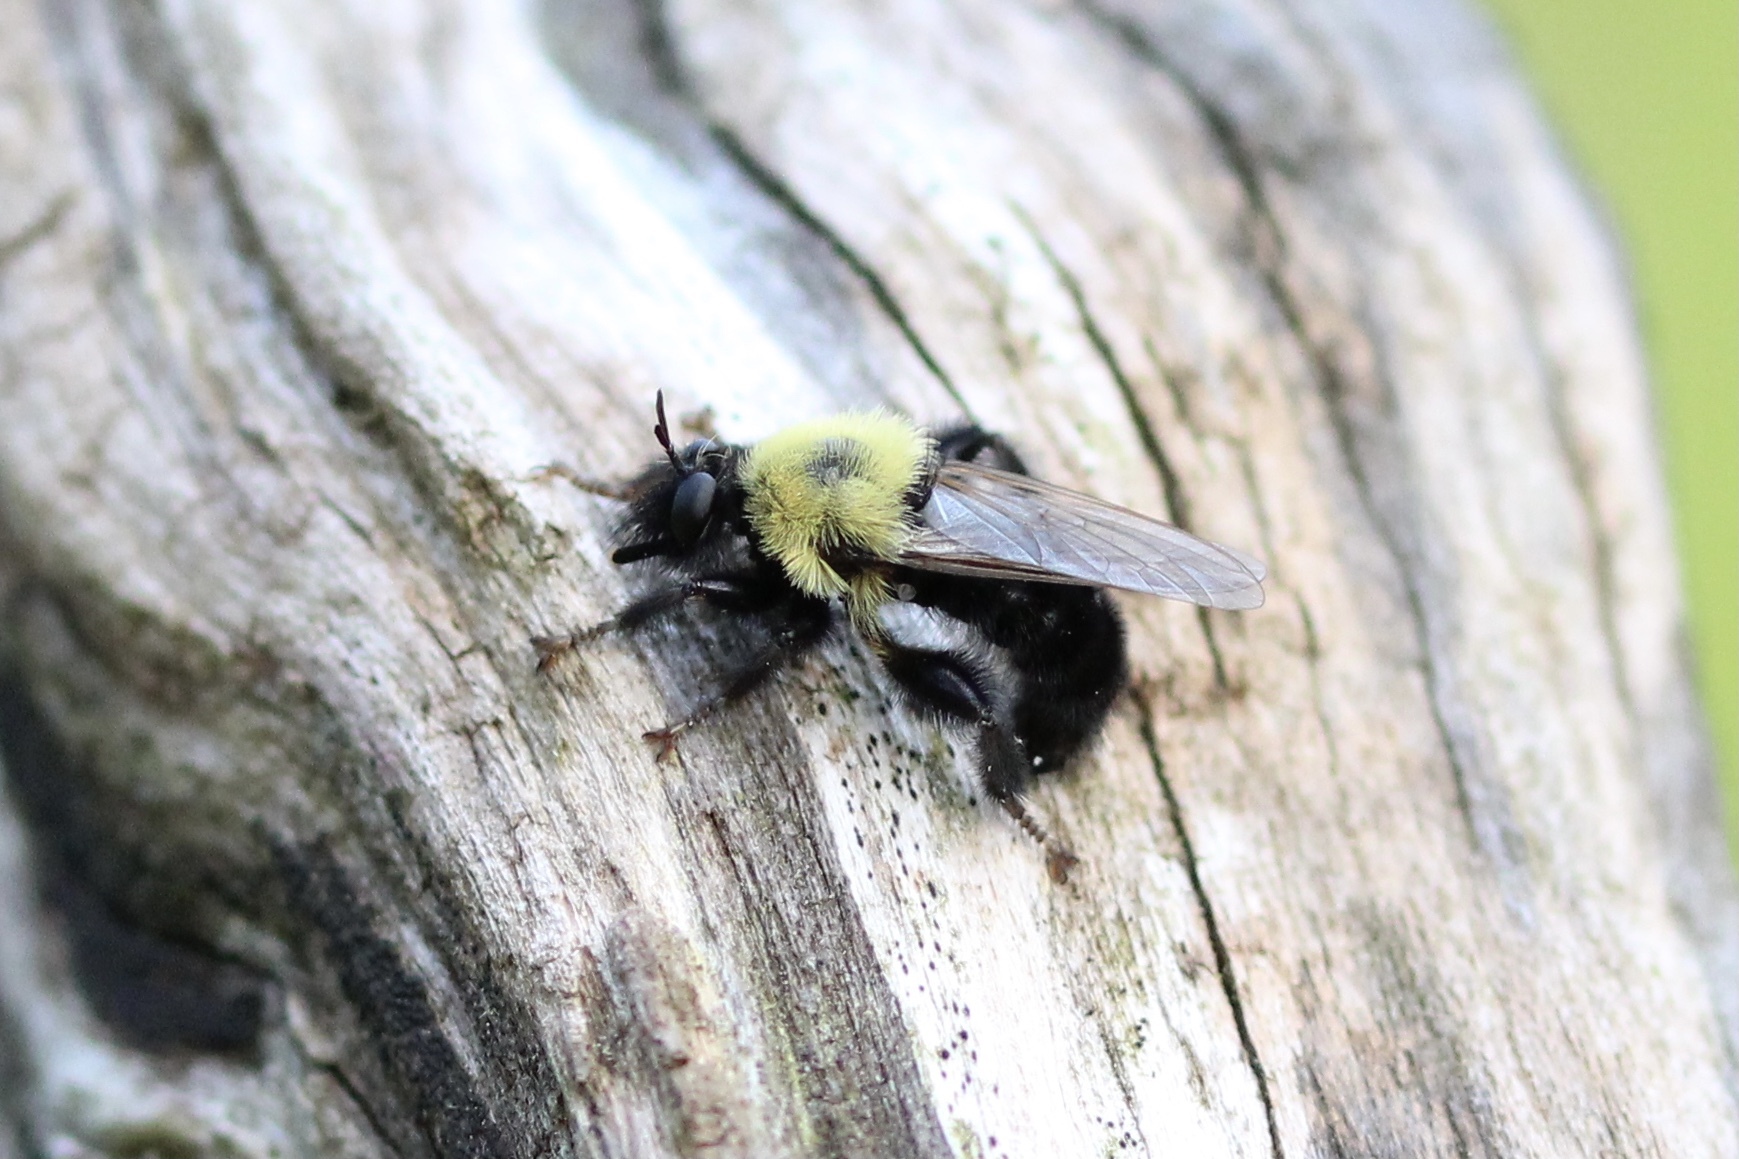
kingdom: Animalia
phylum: Arthropoda
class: Insecta
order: Diptera
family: Asilidae
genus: Laphria
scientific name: Laphria thoracica
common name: Bumble bee mimic robber fly
